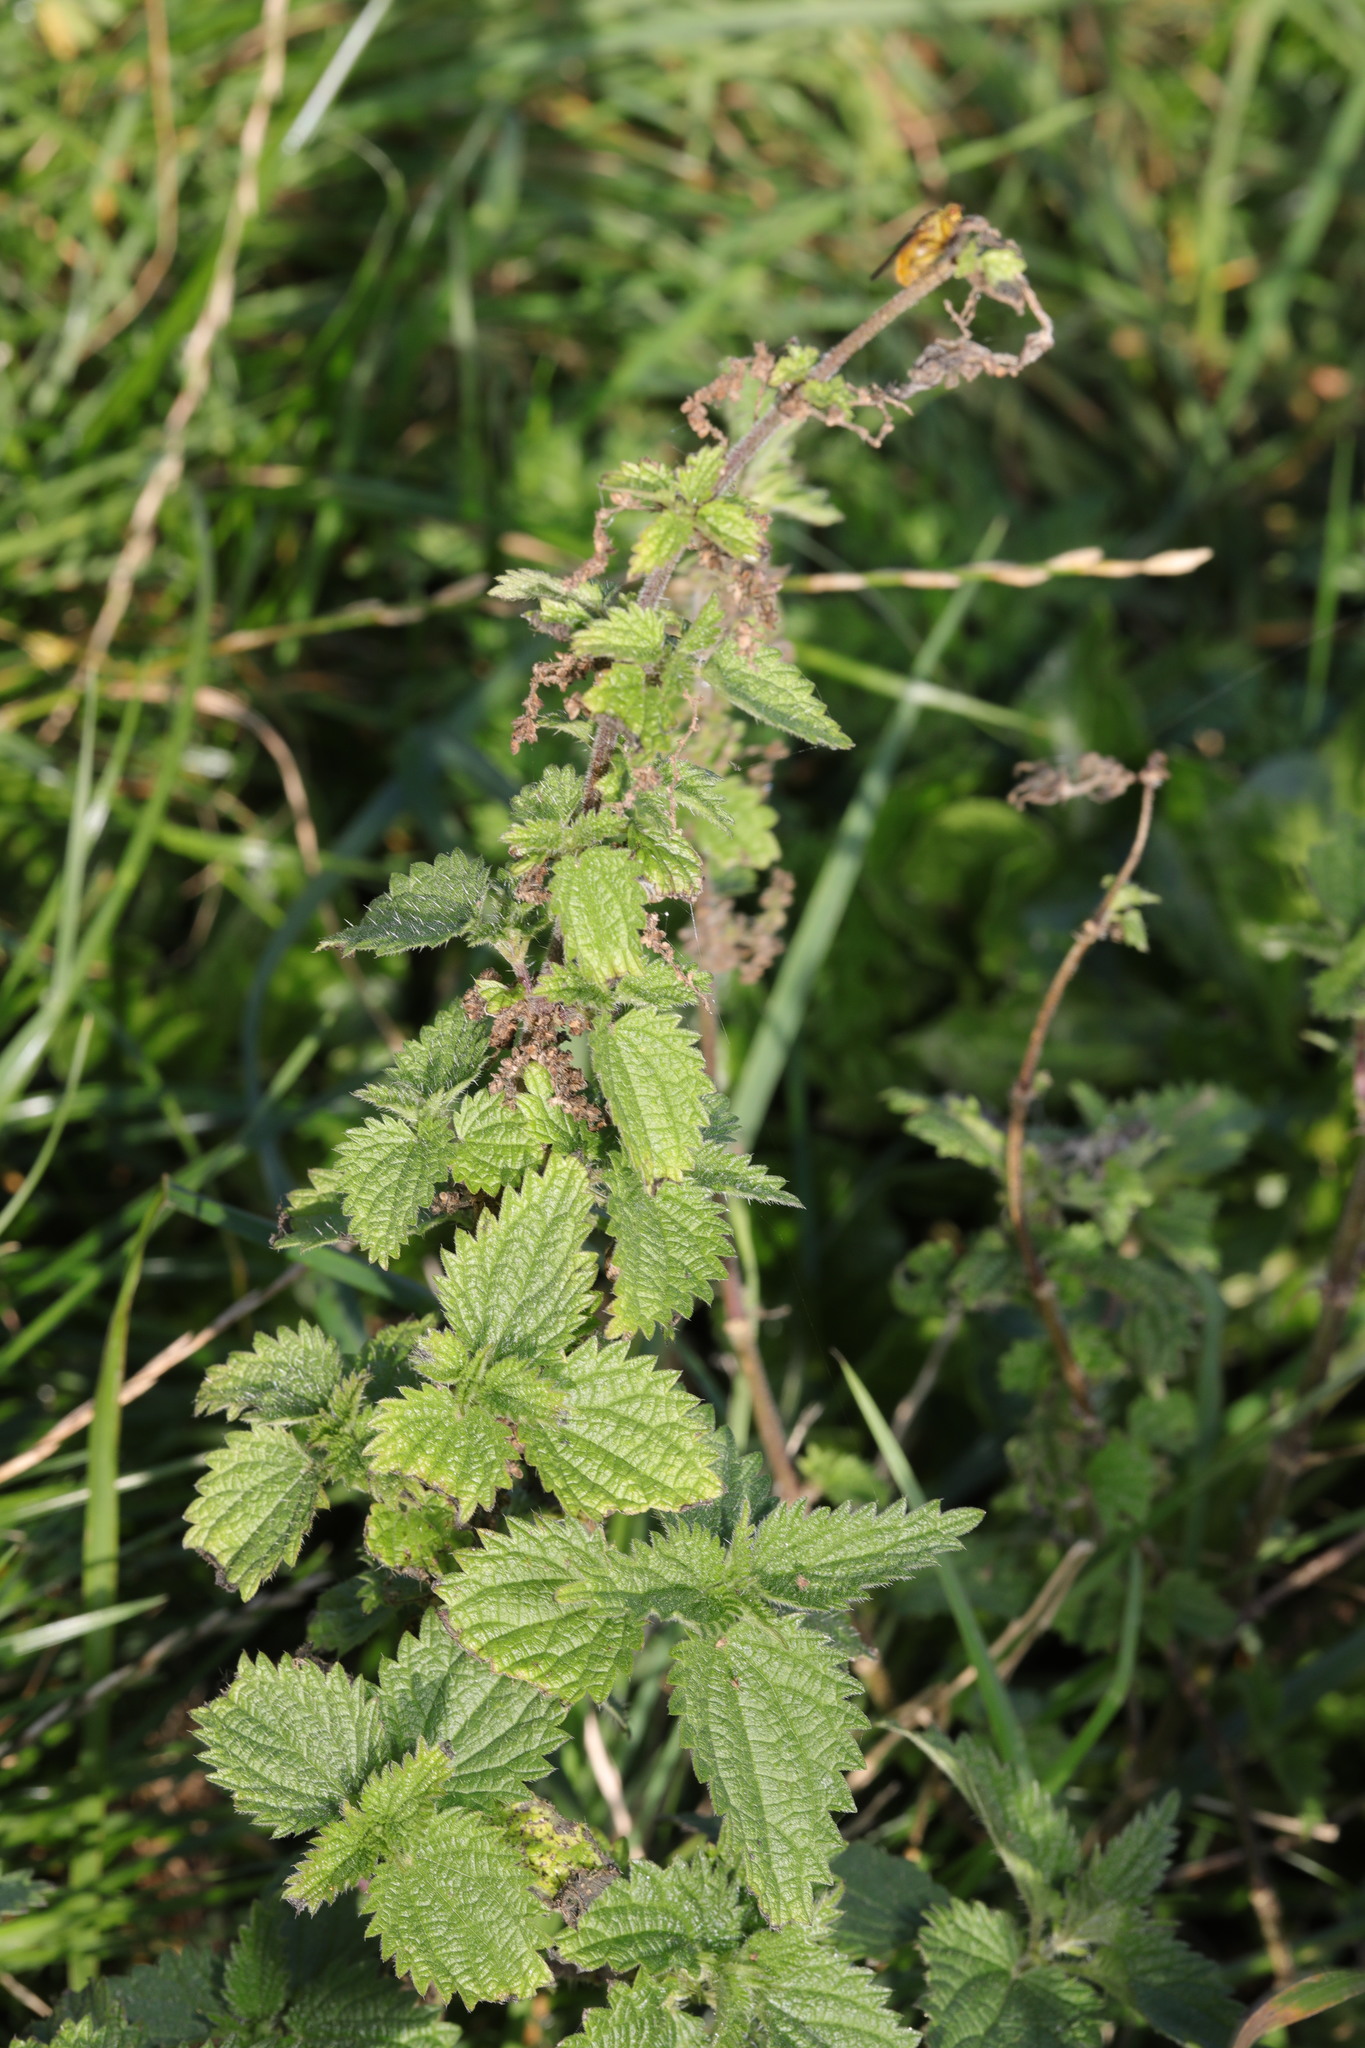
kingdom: Plantae
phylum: Tracheophyta
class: Magnoliopsida
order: Rosales
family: Urticaceae
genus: Urtica
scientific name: Urtica dioica
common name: Common nettle
